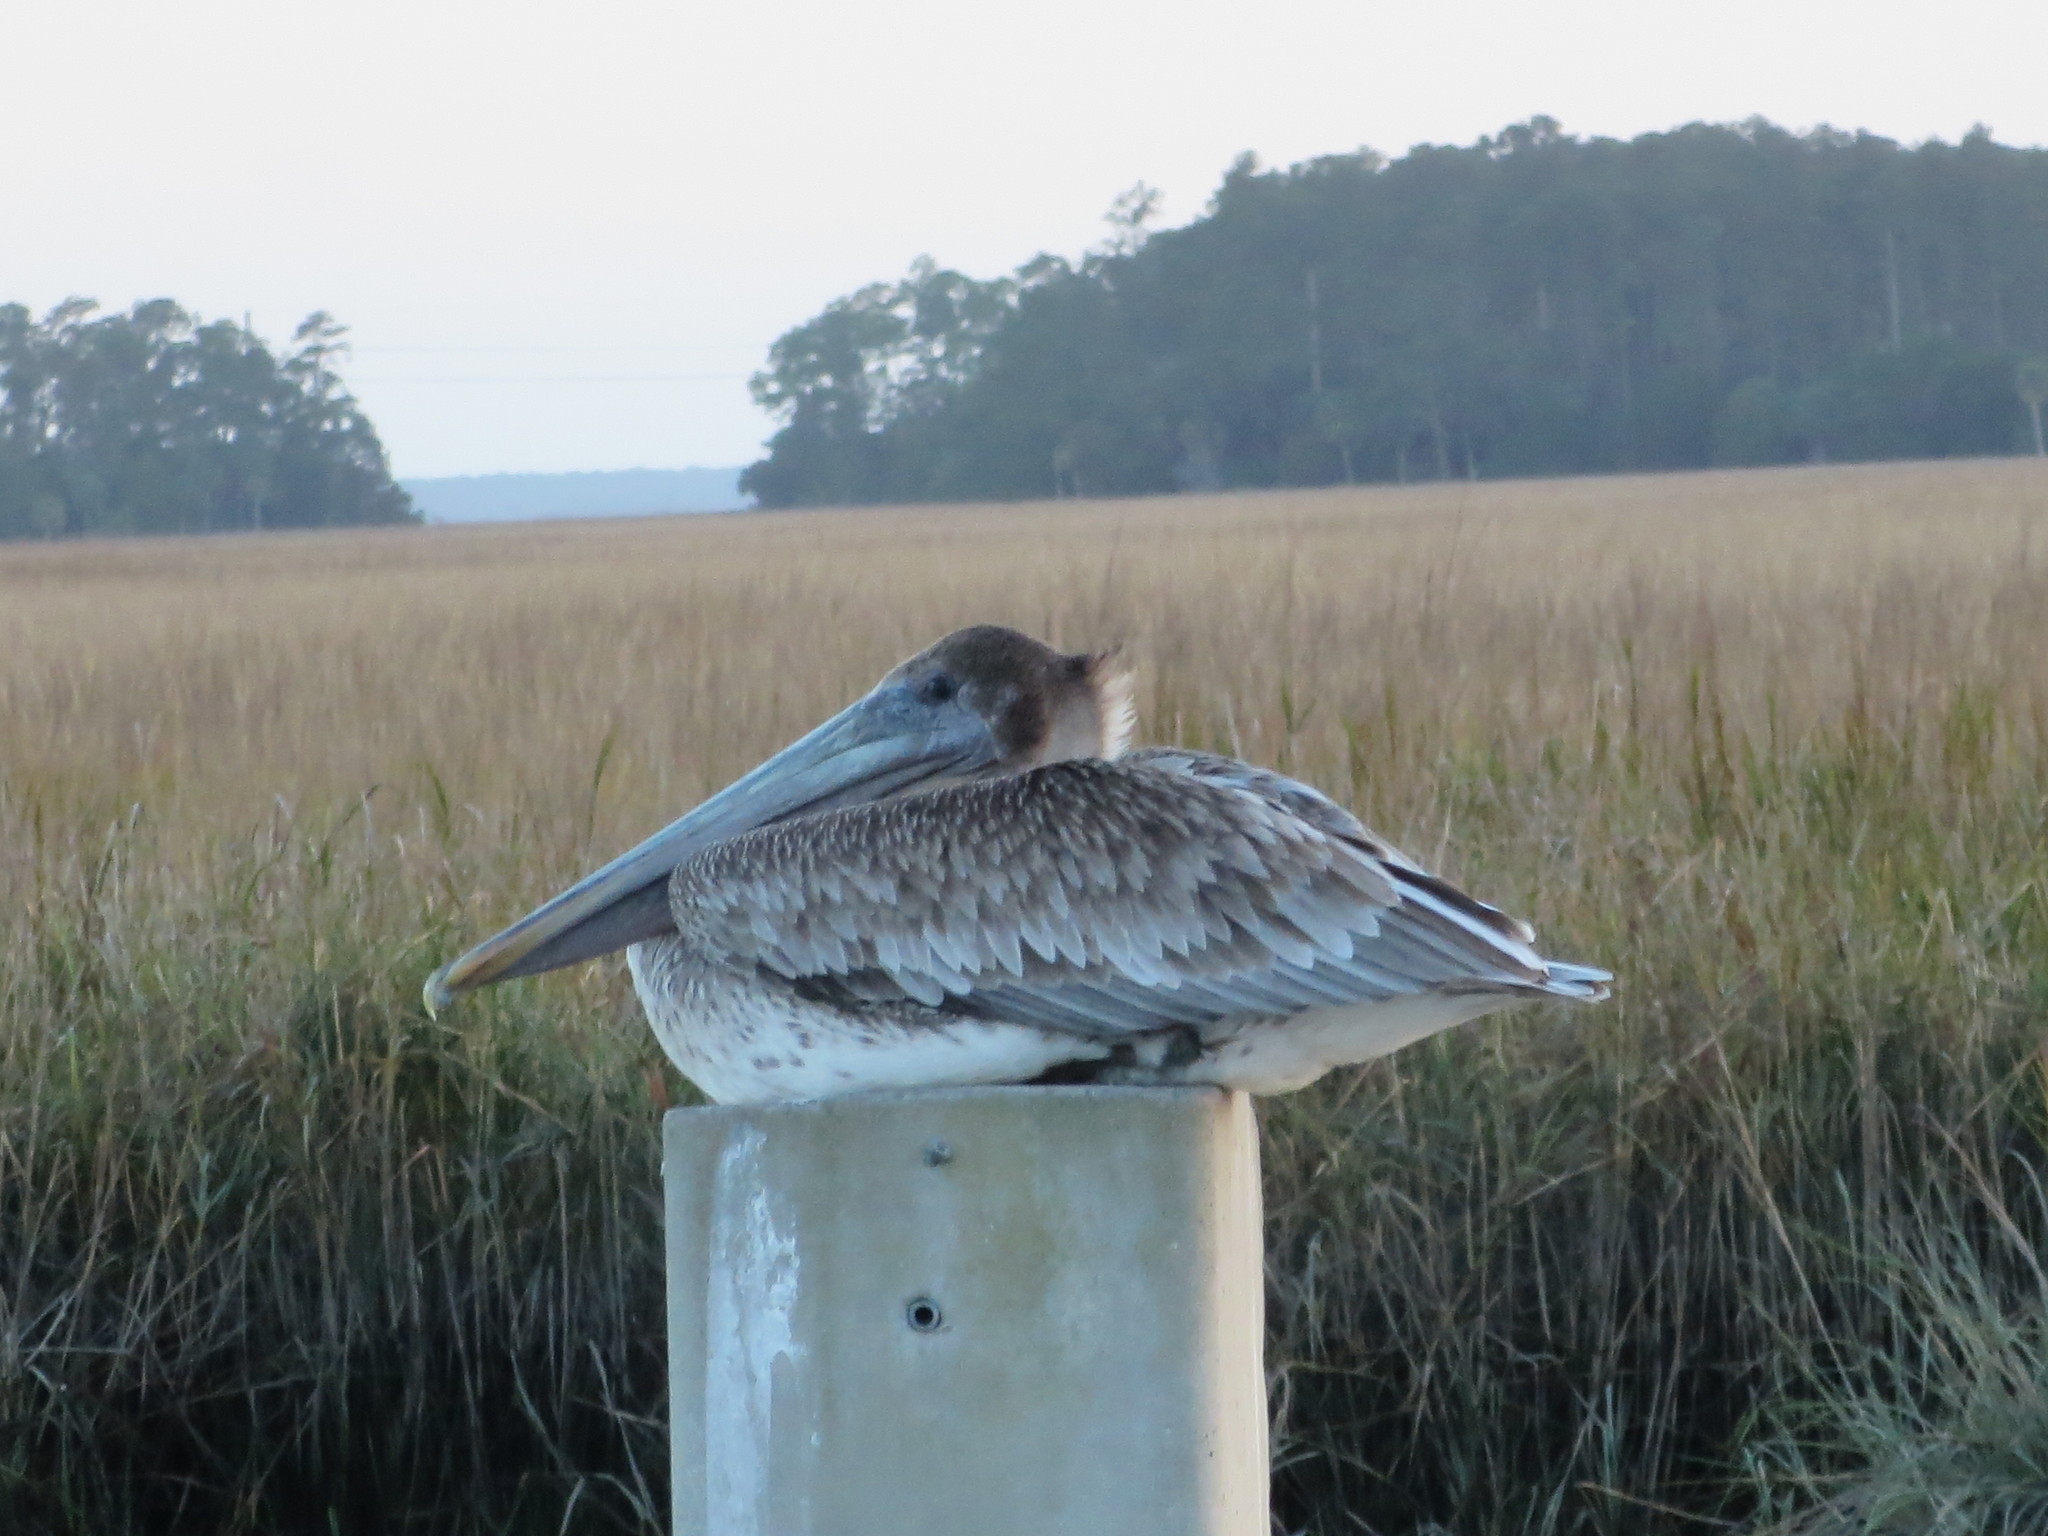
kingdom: Animalia
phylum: Chordata
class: Aves
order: Pelecaniformes
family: Pelecanidae
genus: Pelecanus
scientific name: Pelecanus occidentalis
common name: Brown pelican
